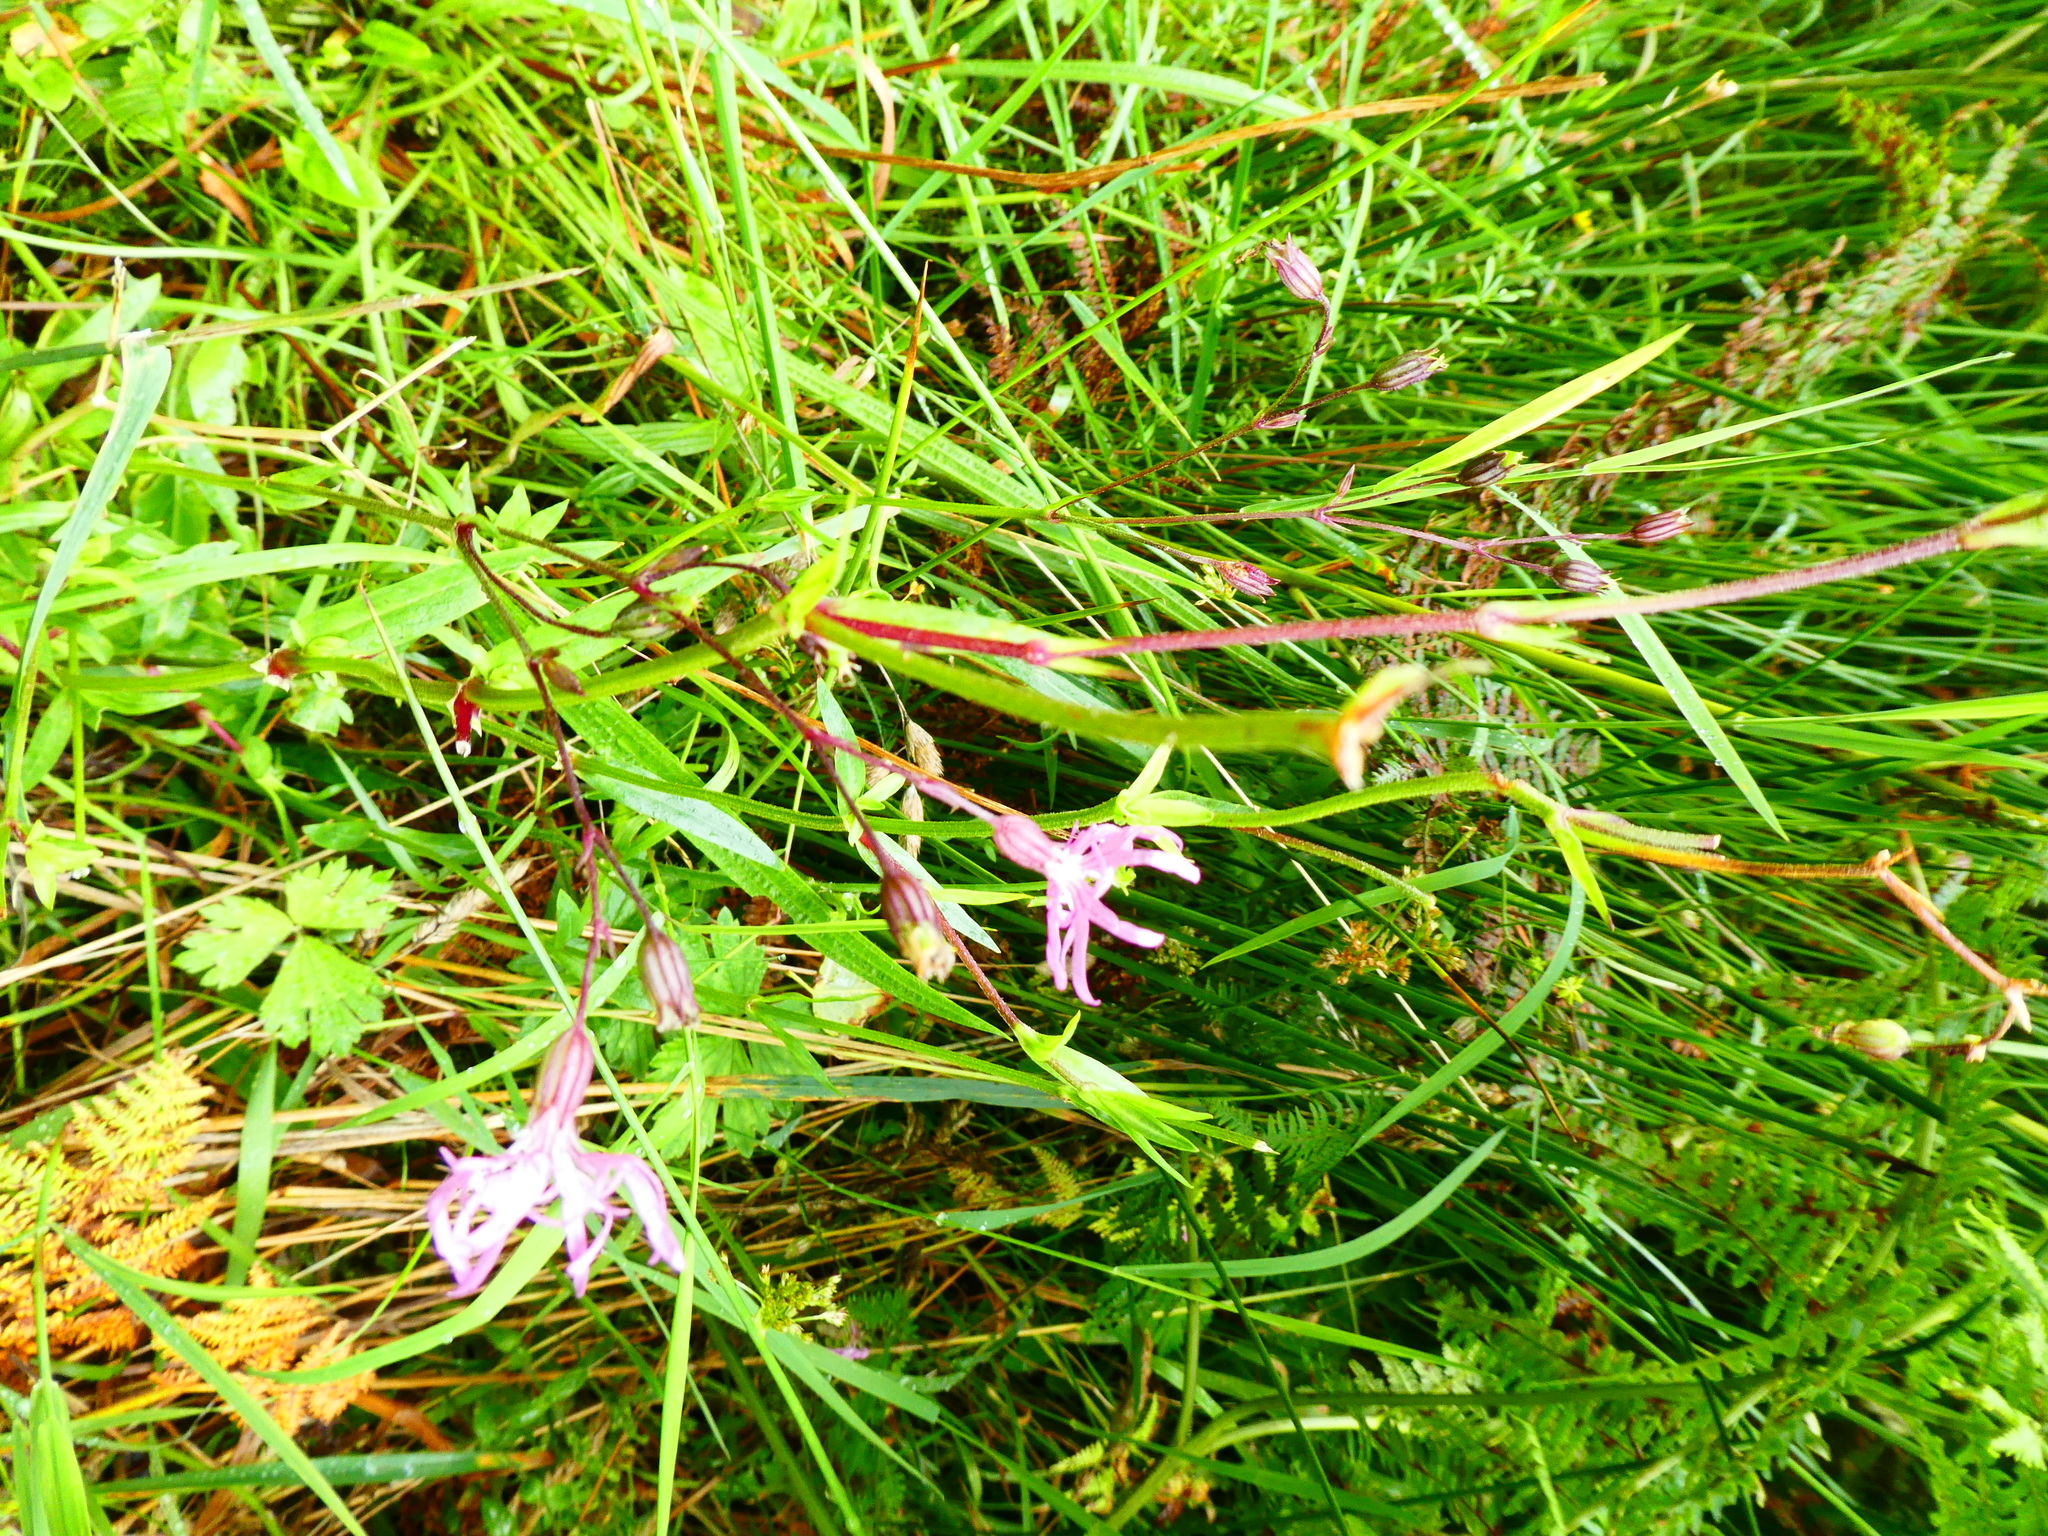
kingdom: Plantae
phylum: Tracheophyta
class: Magnoliopsida
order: Caryophyllales
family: Caryophyllaceae
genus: Silene
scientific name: Silene flos-cuculi
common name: Ragged-robin
